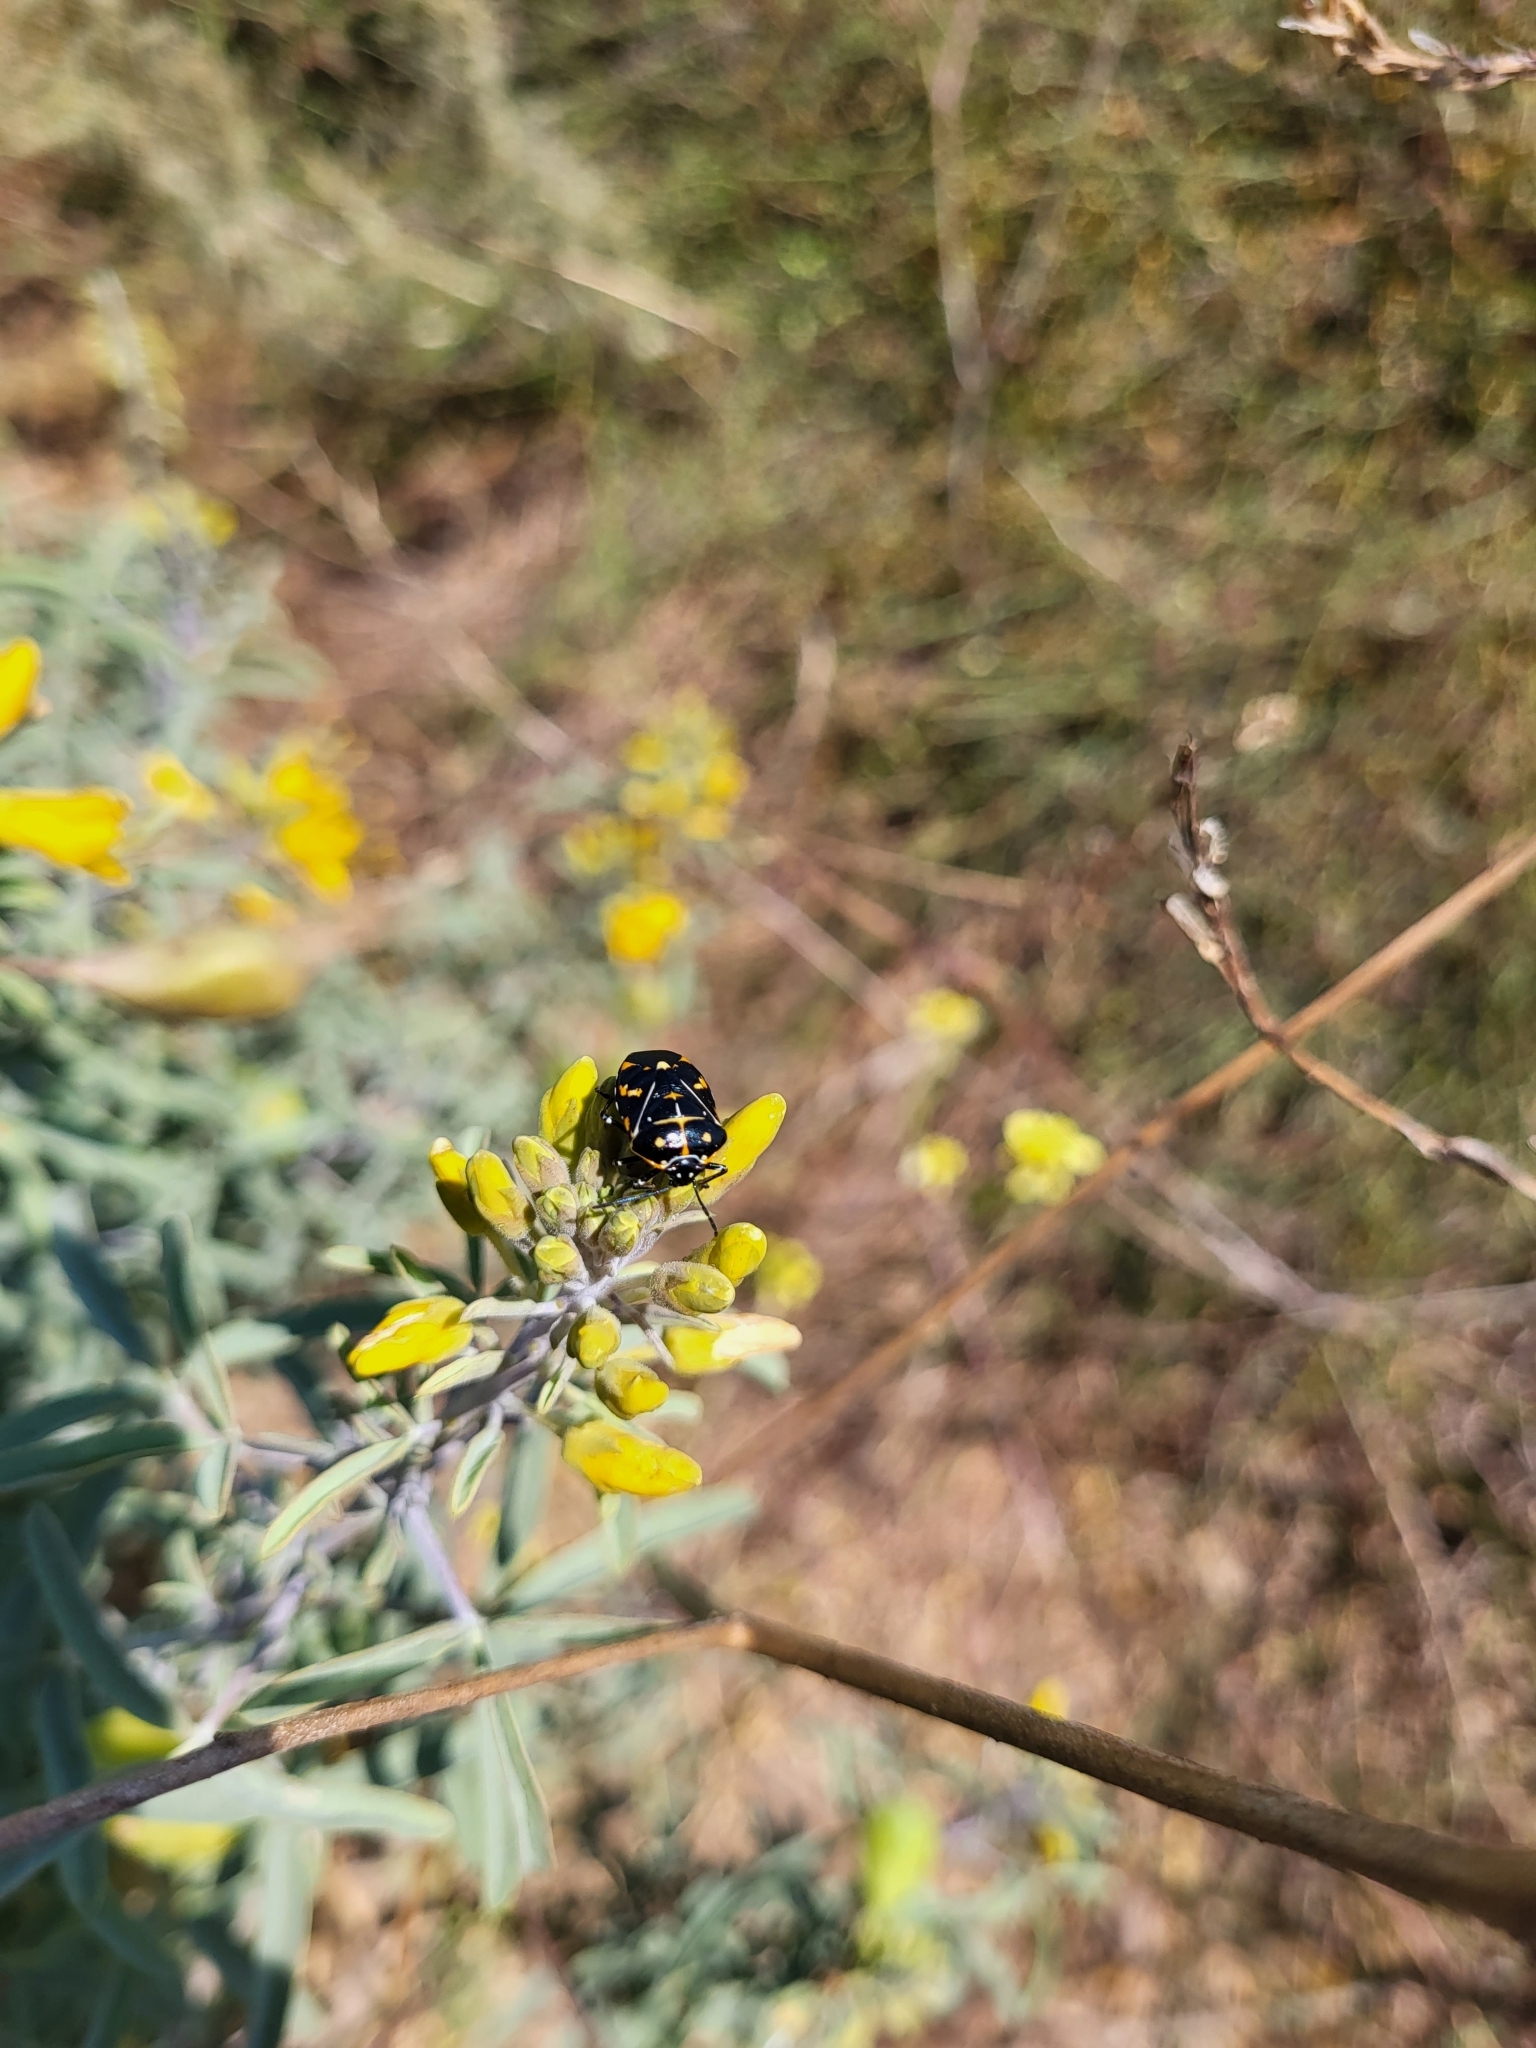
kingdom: Animalia
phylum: Arthropoda
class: Insecta
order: Hemiptera
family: Pentatomidae
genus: Murgantia
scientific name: Murgantia histrionica
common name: Harlequin bug
